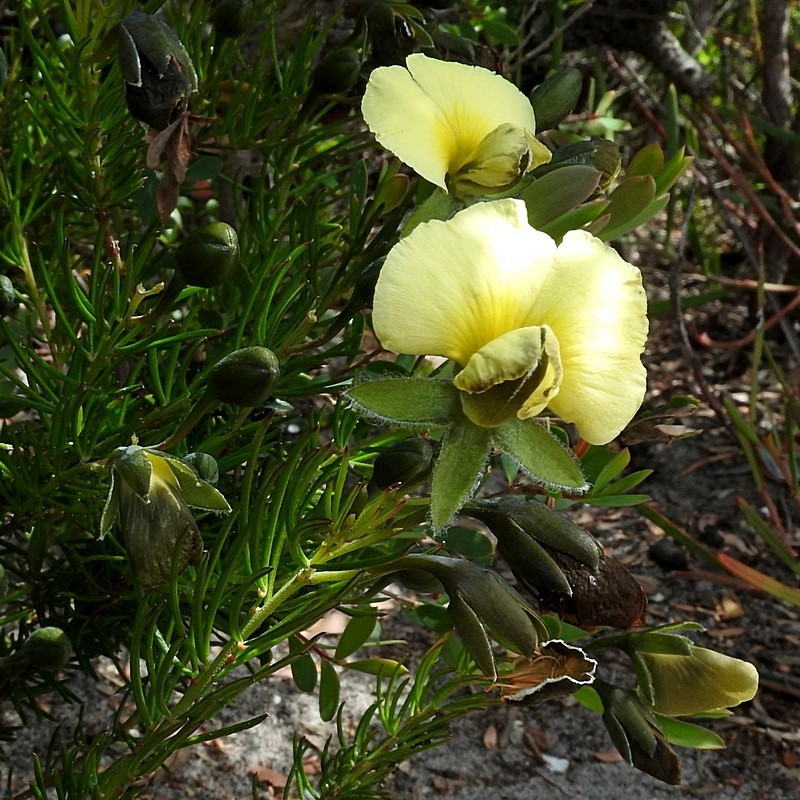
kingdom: Plantae
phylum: Tracheophyta
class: Magnoliopsida
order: Fabales
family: Fabaceae
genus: Gompholobium
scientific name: Gompholobium huegelii
